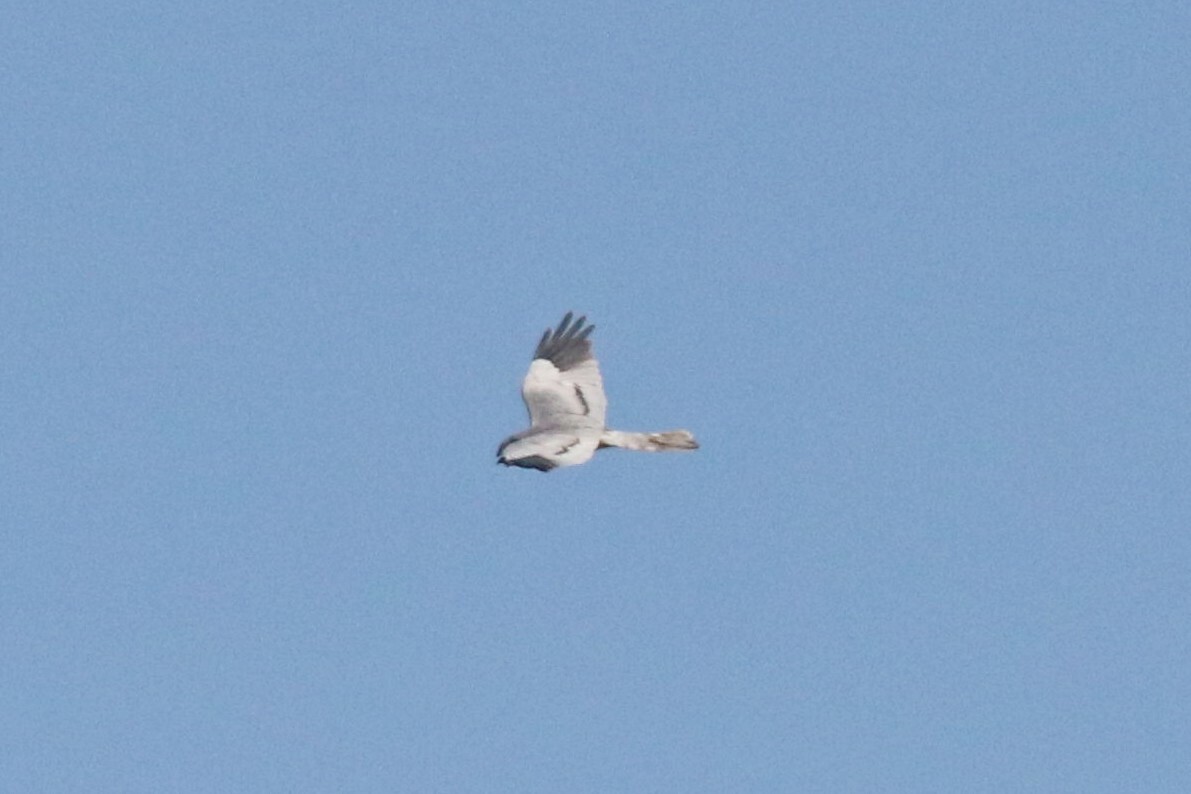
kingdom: Animalia
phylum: Chordata
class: Aves
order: Accipitriformes
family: Accipitridae
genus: Circus
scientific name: Circus pygargus
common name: Montagu's harrier
